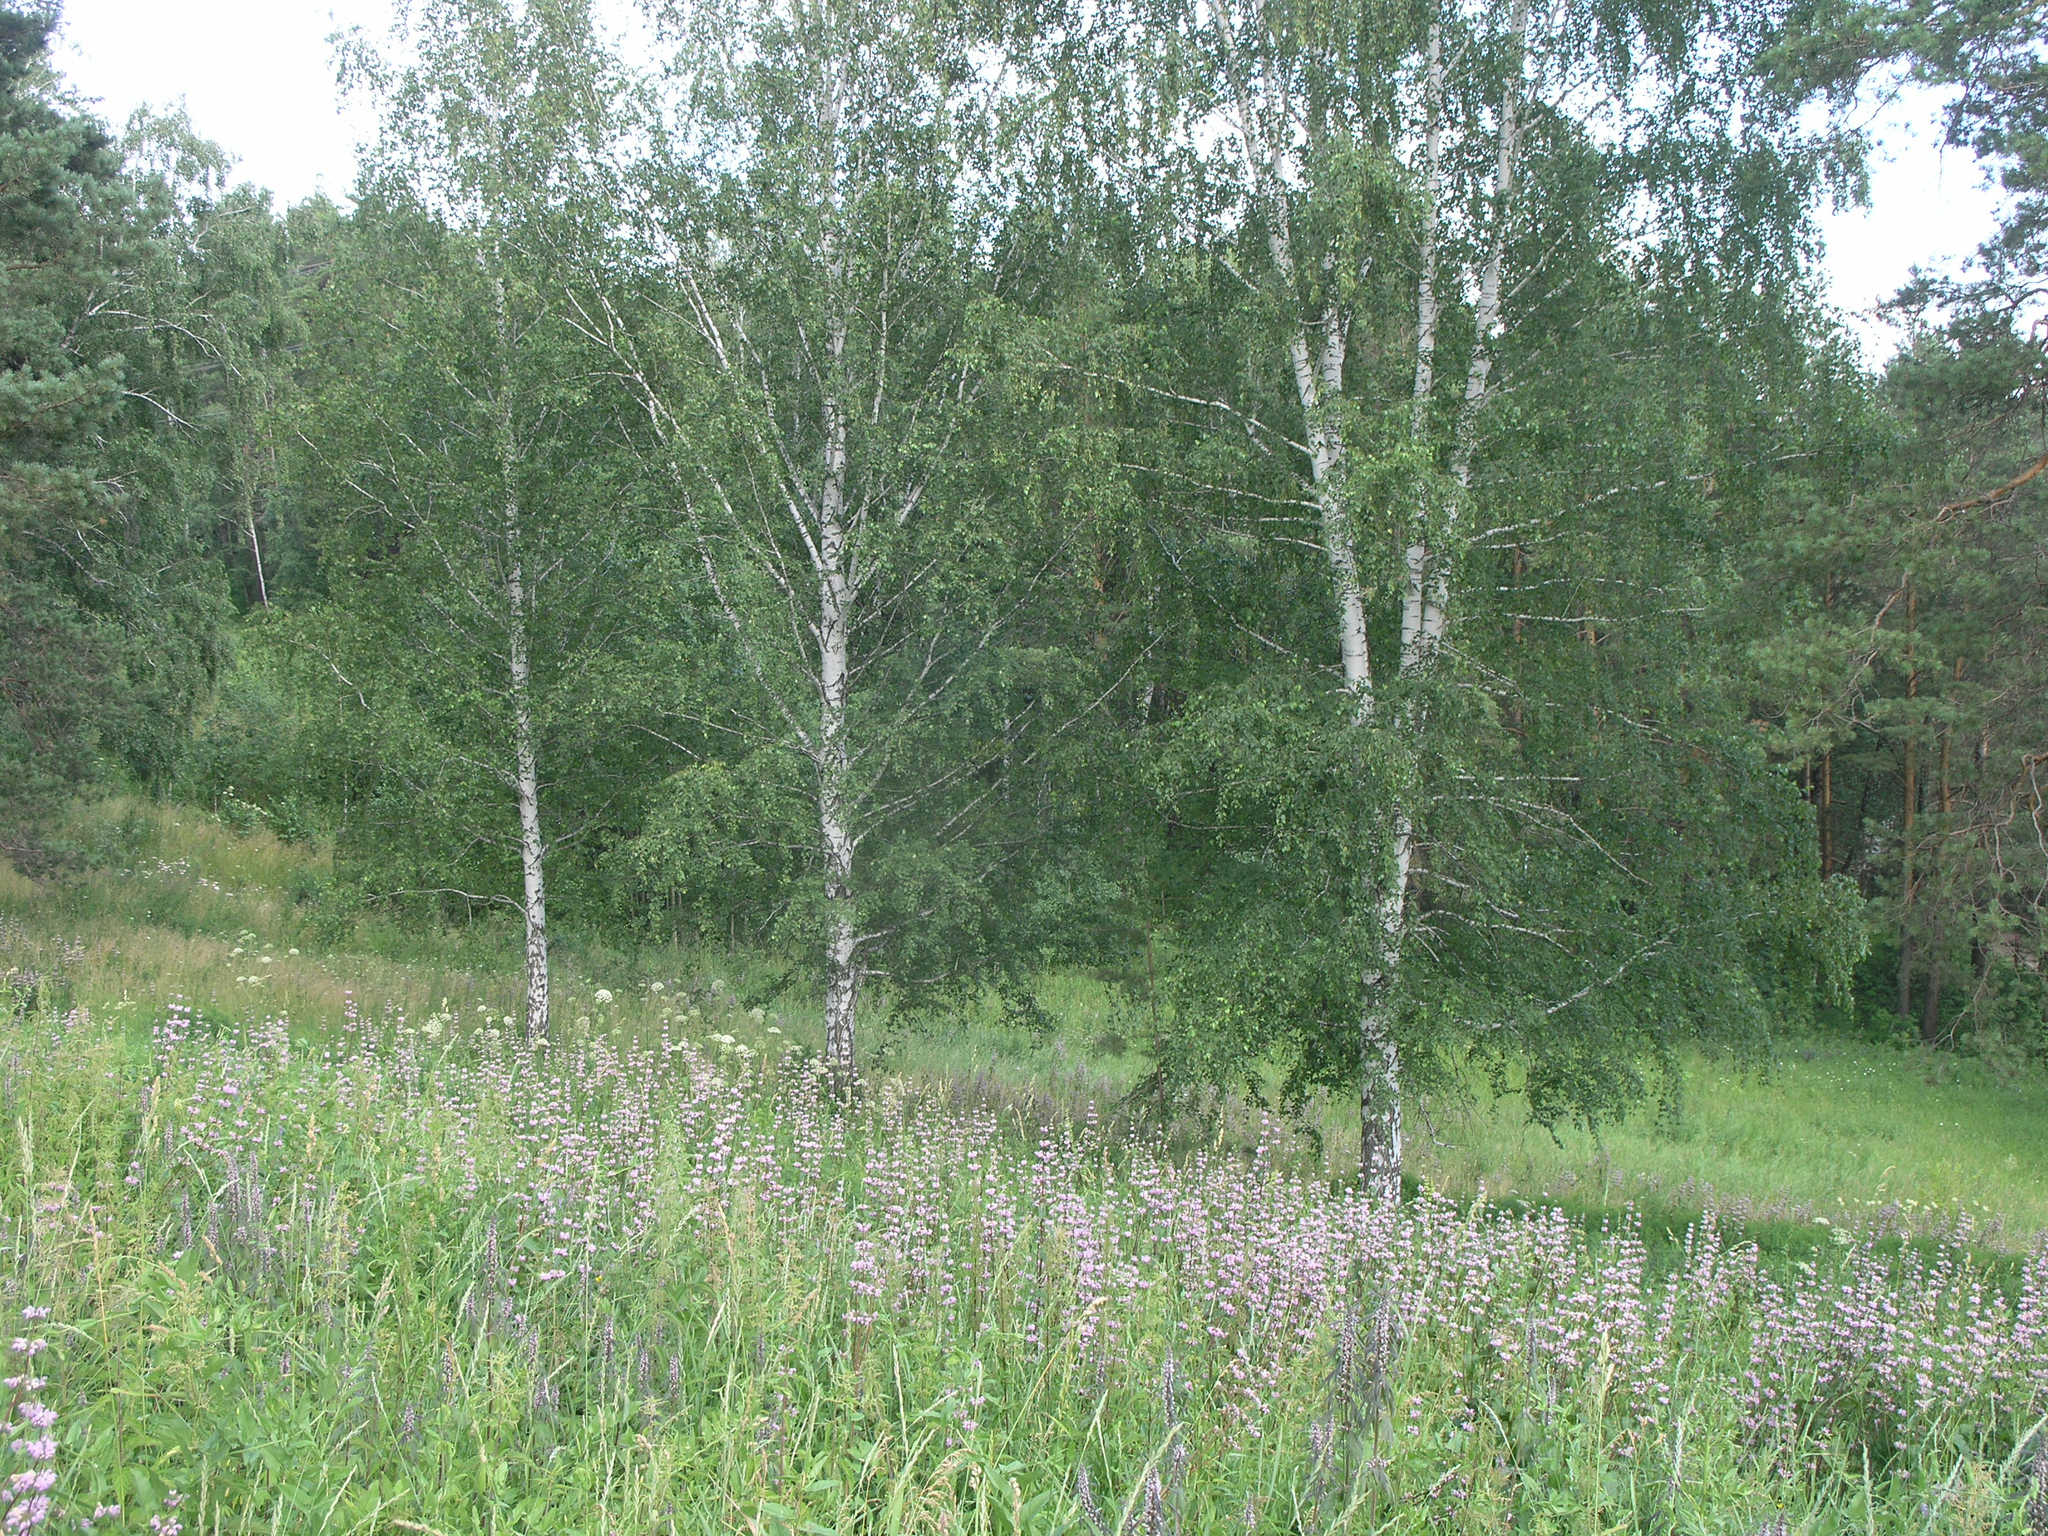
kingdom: Plantae
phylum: Tracheophyta
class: Magnoliopsida
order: Lamiales
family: Lamiaceae
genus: Phlomoides
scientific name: Phlomoides tuberosa
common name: Tuberous jerusalem sage
